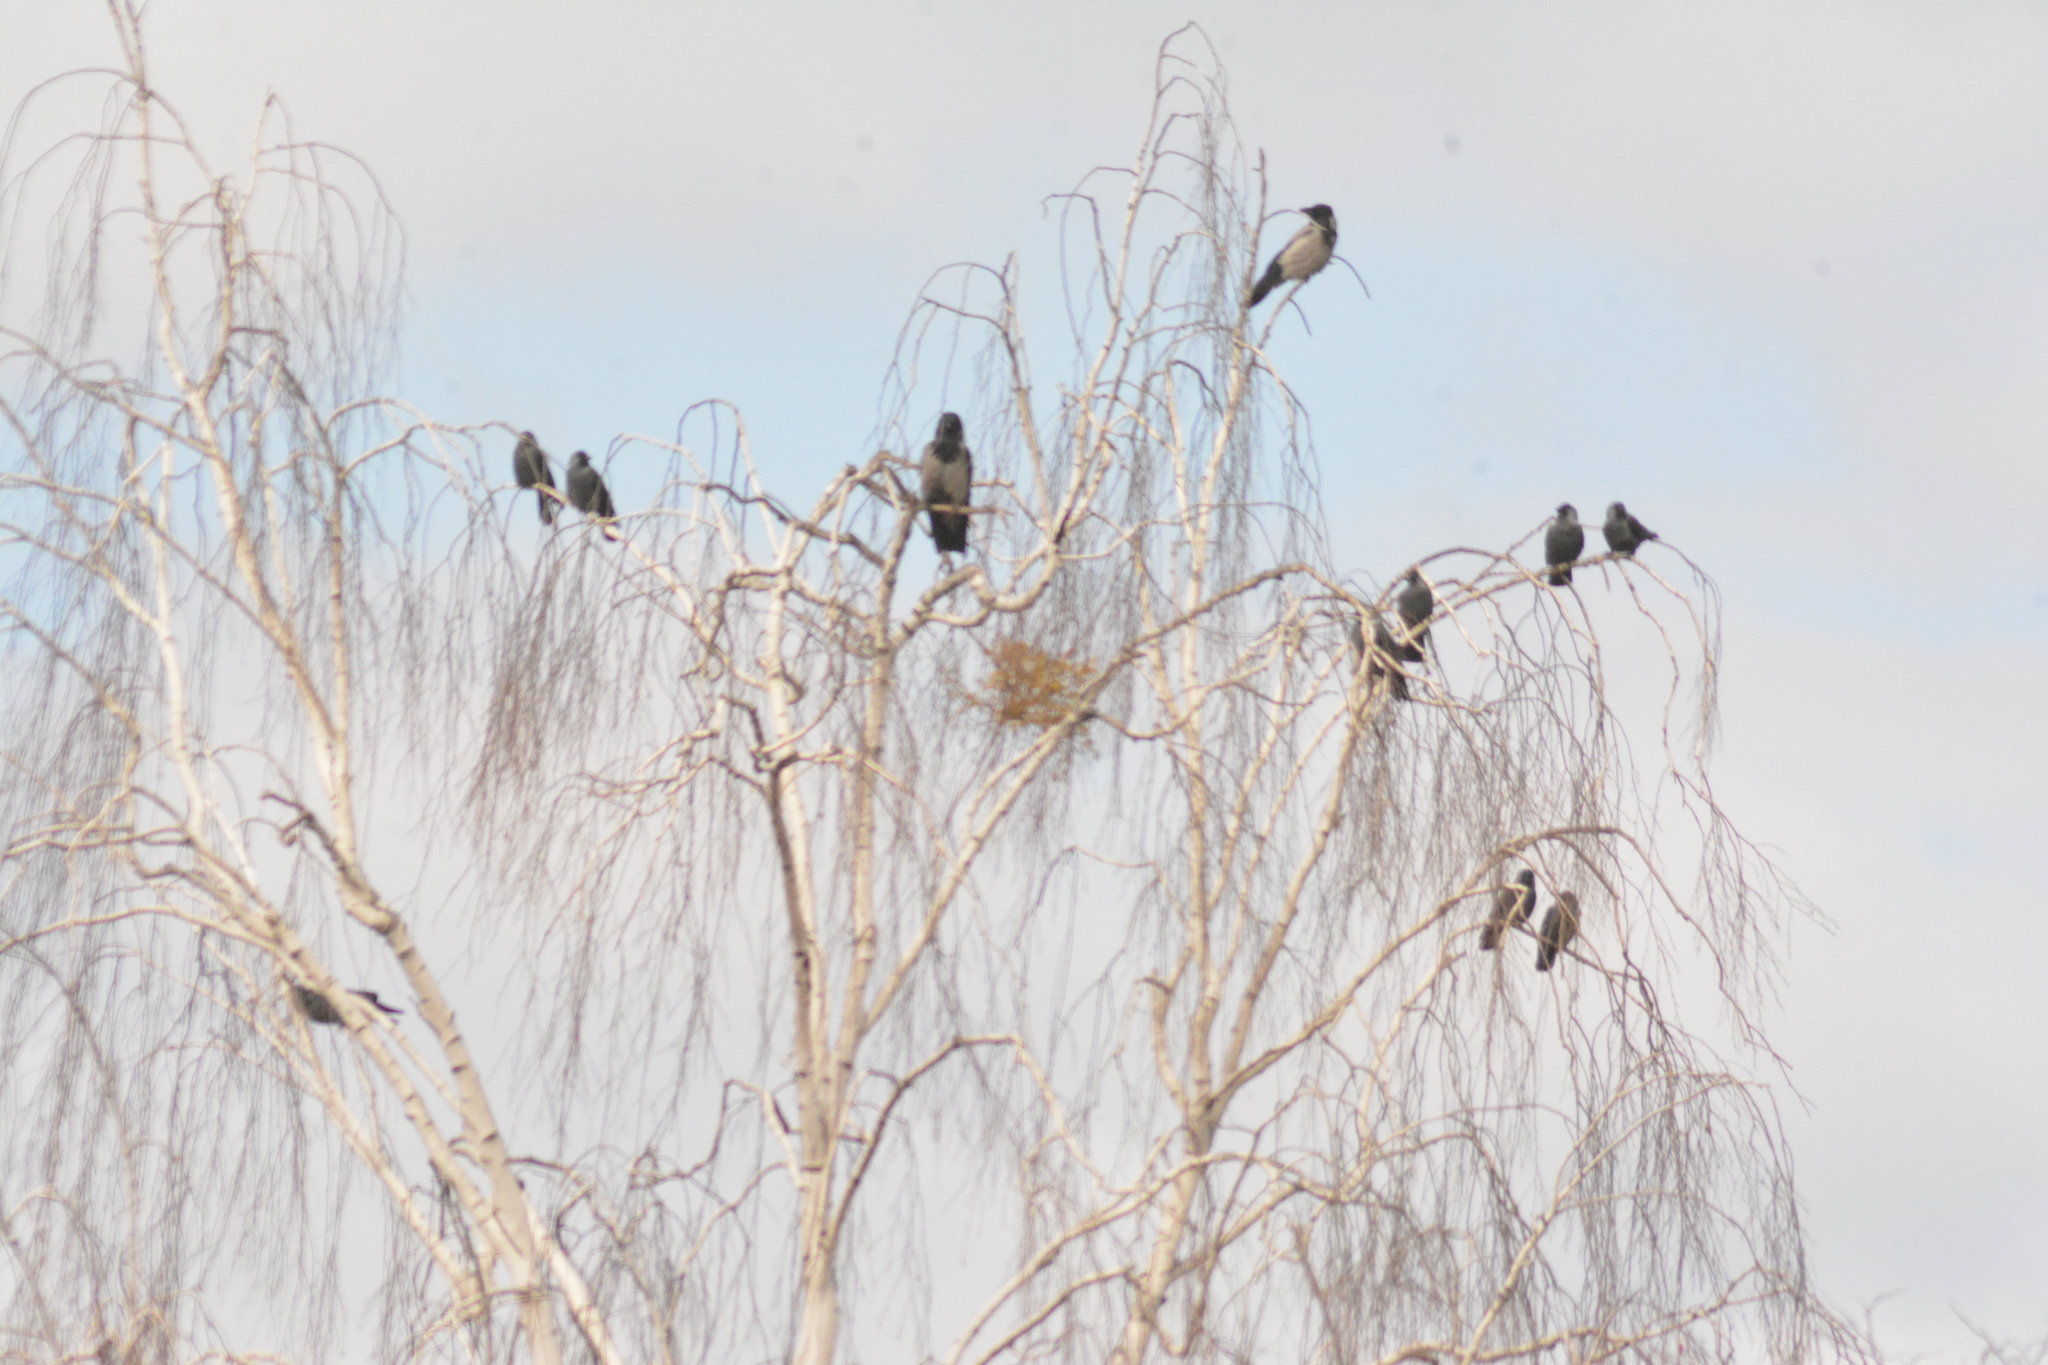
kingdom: Animalia
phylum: Chordata
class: Aves
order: Passeriformes
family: Corvidae
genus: Coloeus
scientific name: Coloeus monedula
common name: Western jackdaw
